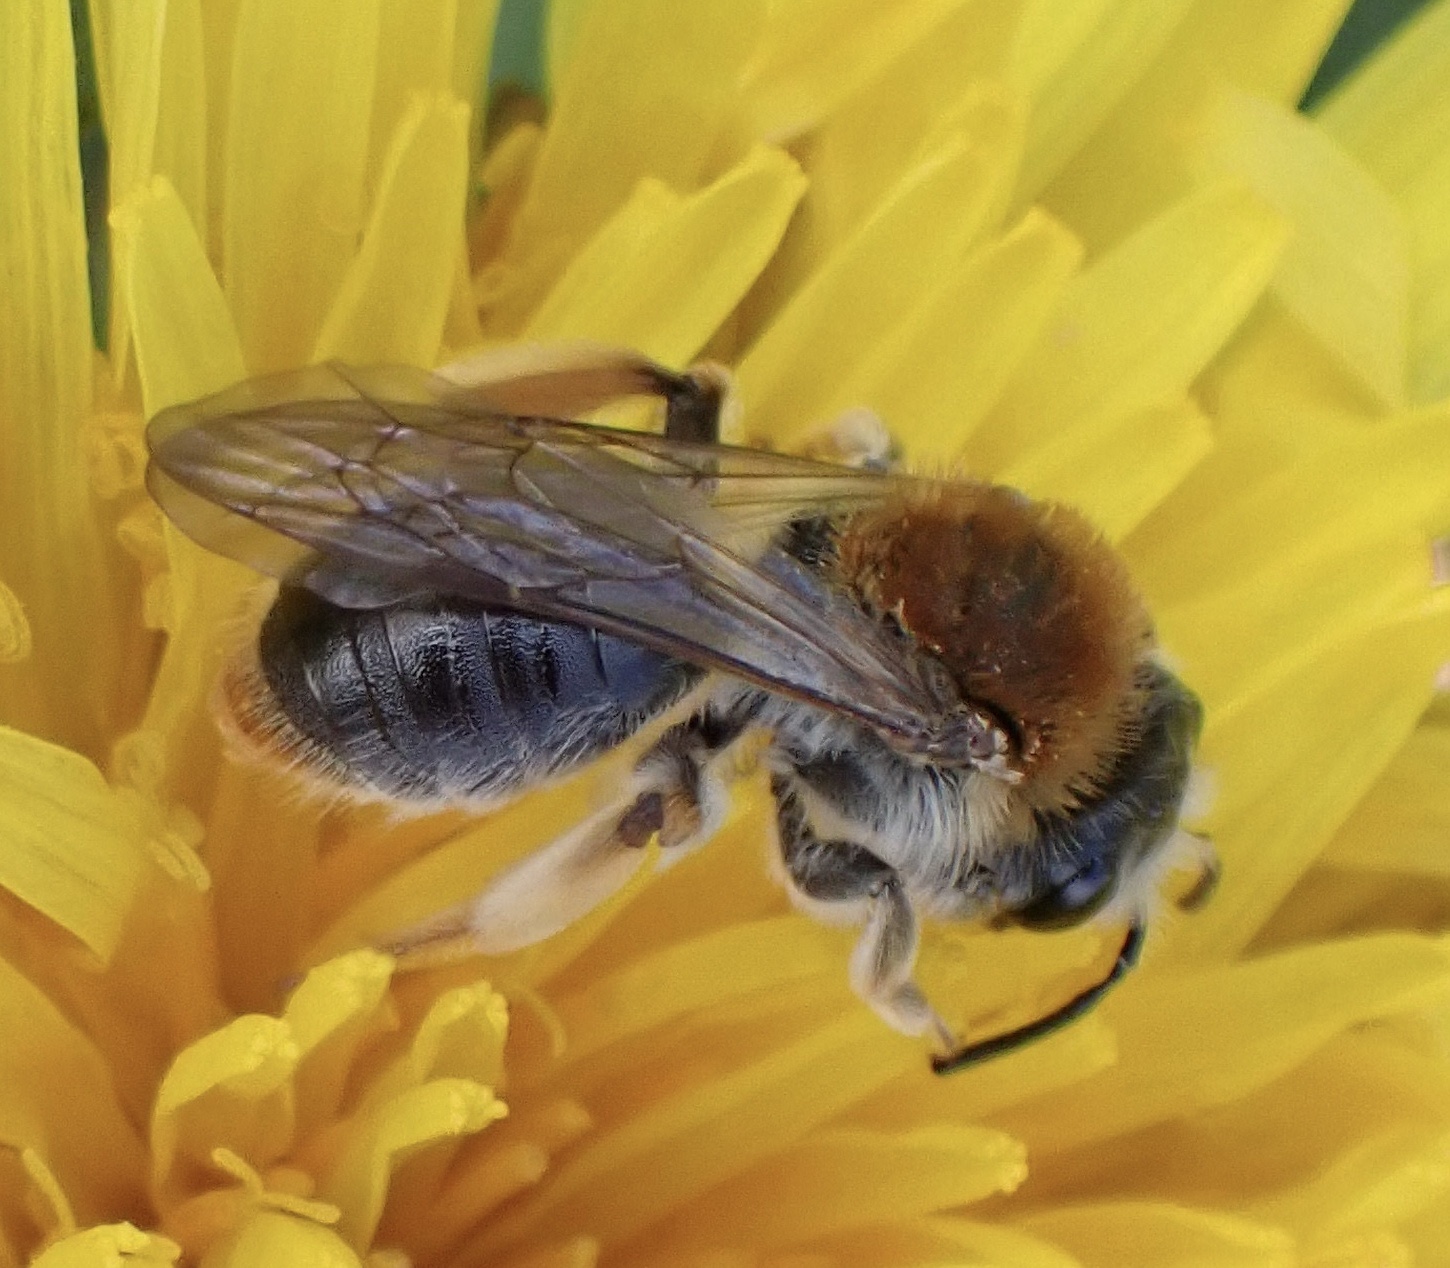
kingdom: Animalia
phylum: Arthropoda
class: Insecta
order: Hymenoptera
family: Andrenidae
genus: Andrena
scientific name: Andrena haemorrhoa
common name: Early mining bee
